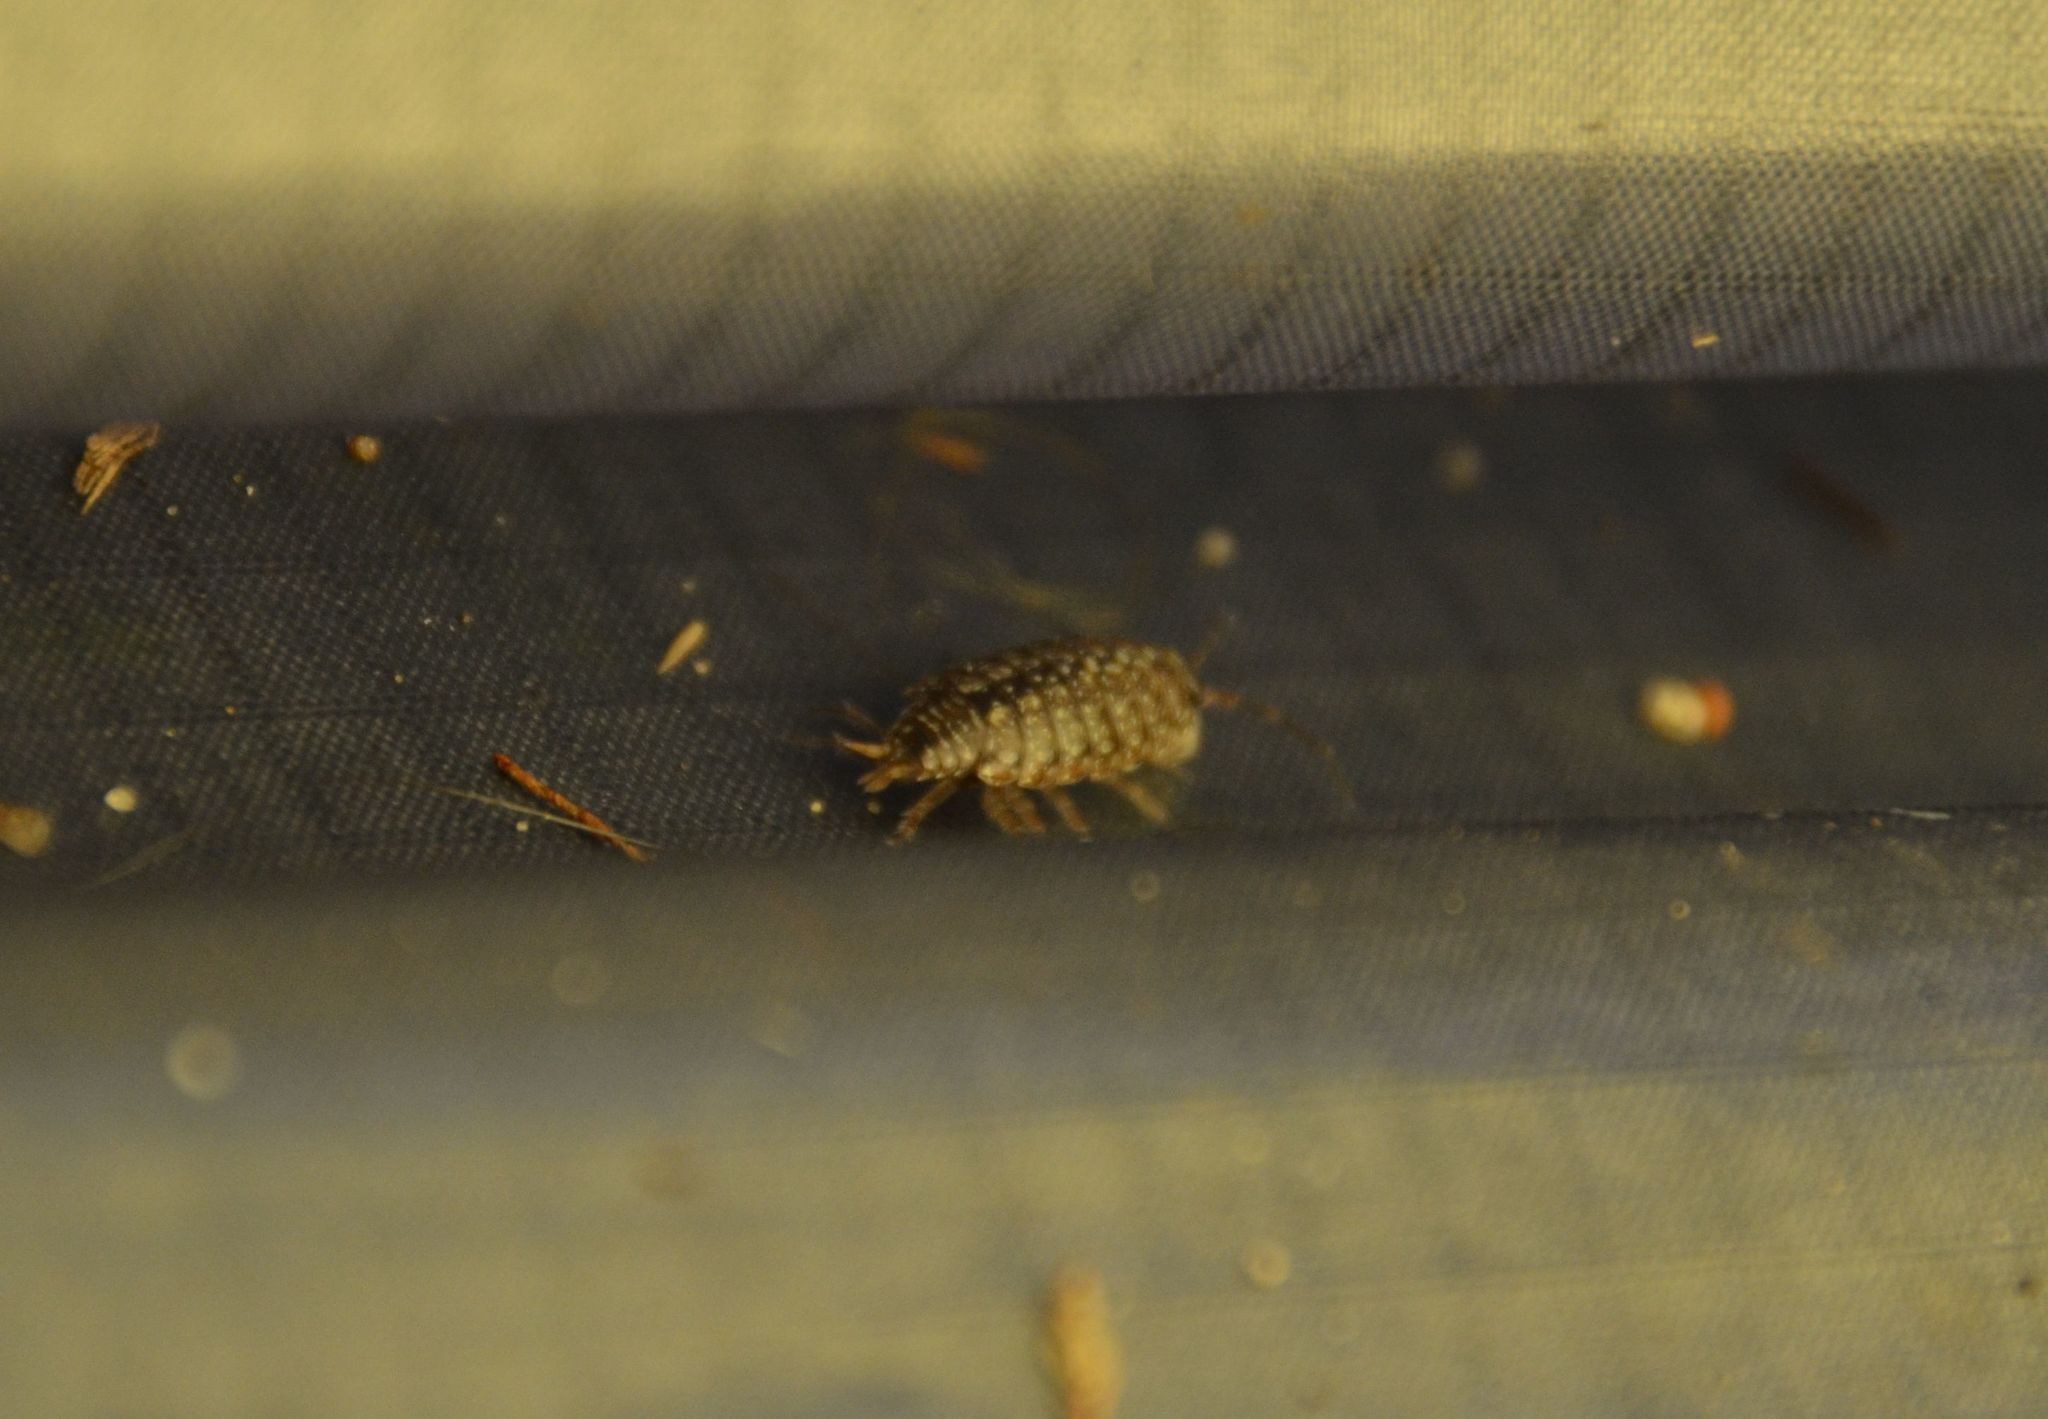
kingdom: Animalia
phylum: Arthropoda
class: Malacostraca
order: Isopoda
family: Philosciidae
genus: Philoscia
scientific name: Philoscia affinis
